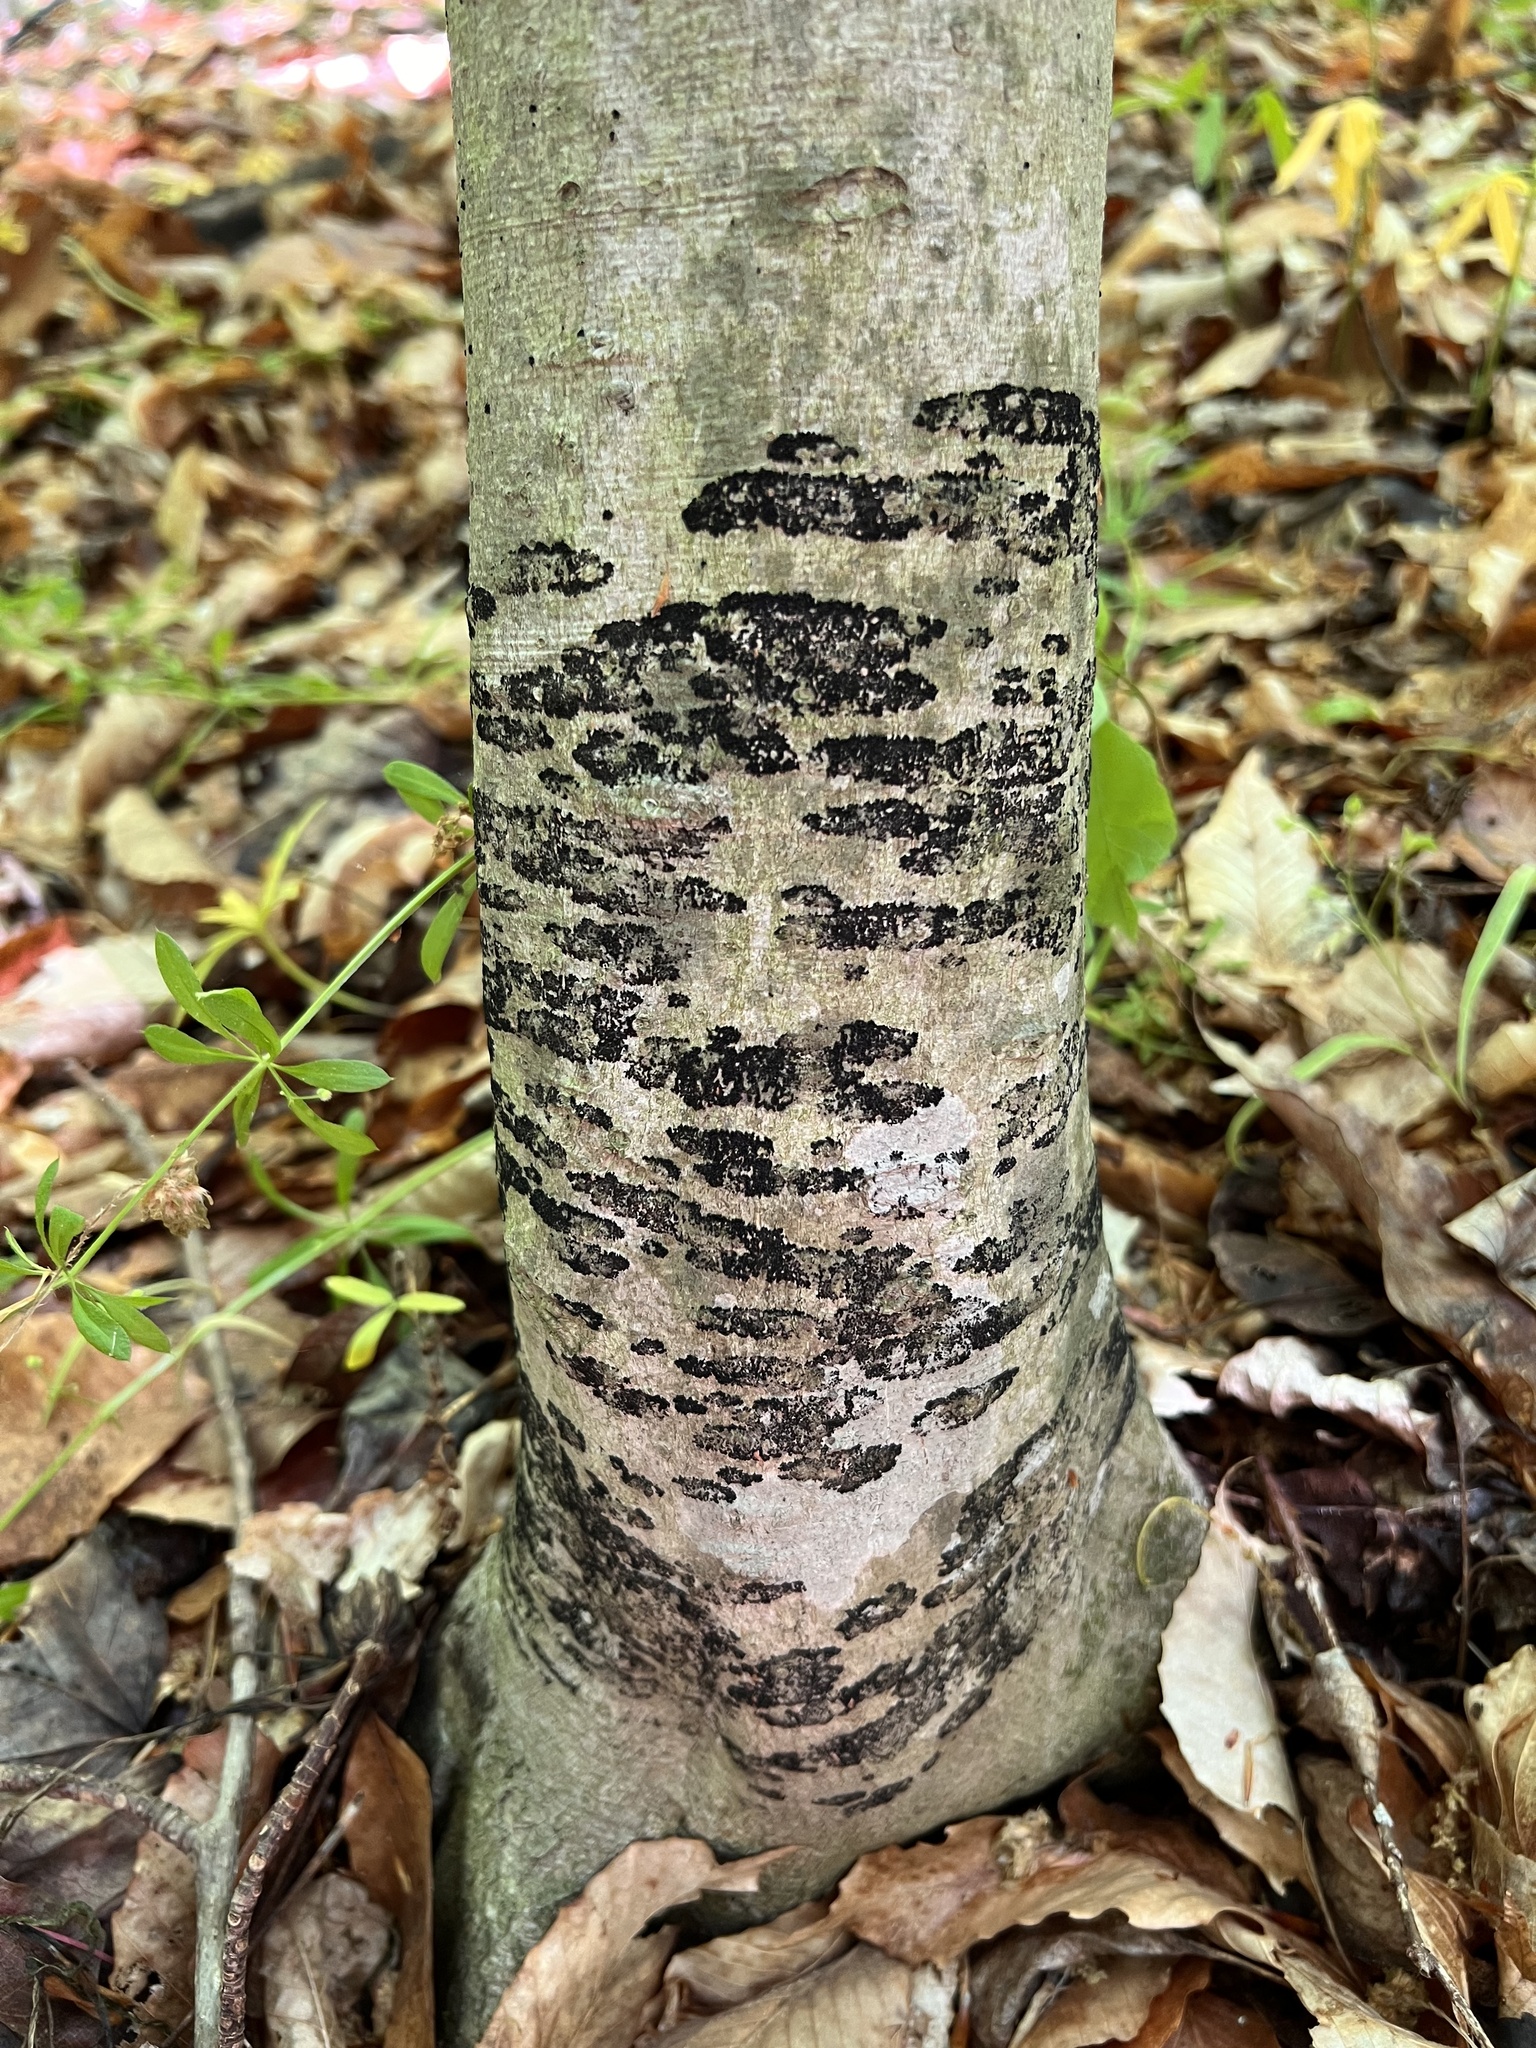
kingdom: Fungi
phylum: Ascomycota
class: Leotiomycetes
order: Rhytismatales
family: Ascodichaenaceae
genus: Ascodichaena
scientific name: Ascodichaena rugosa
